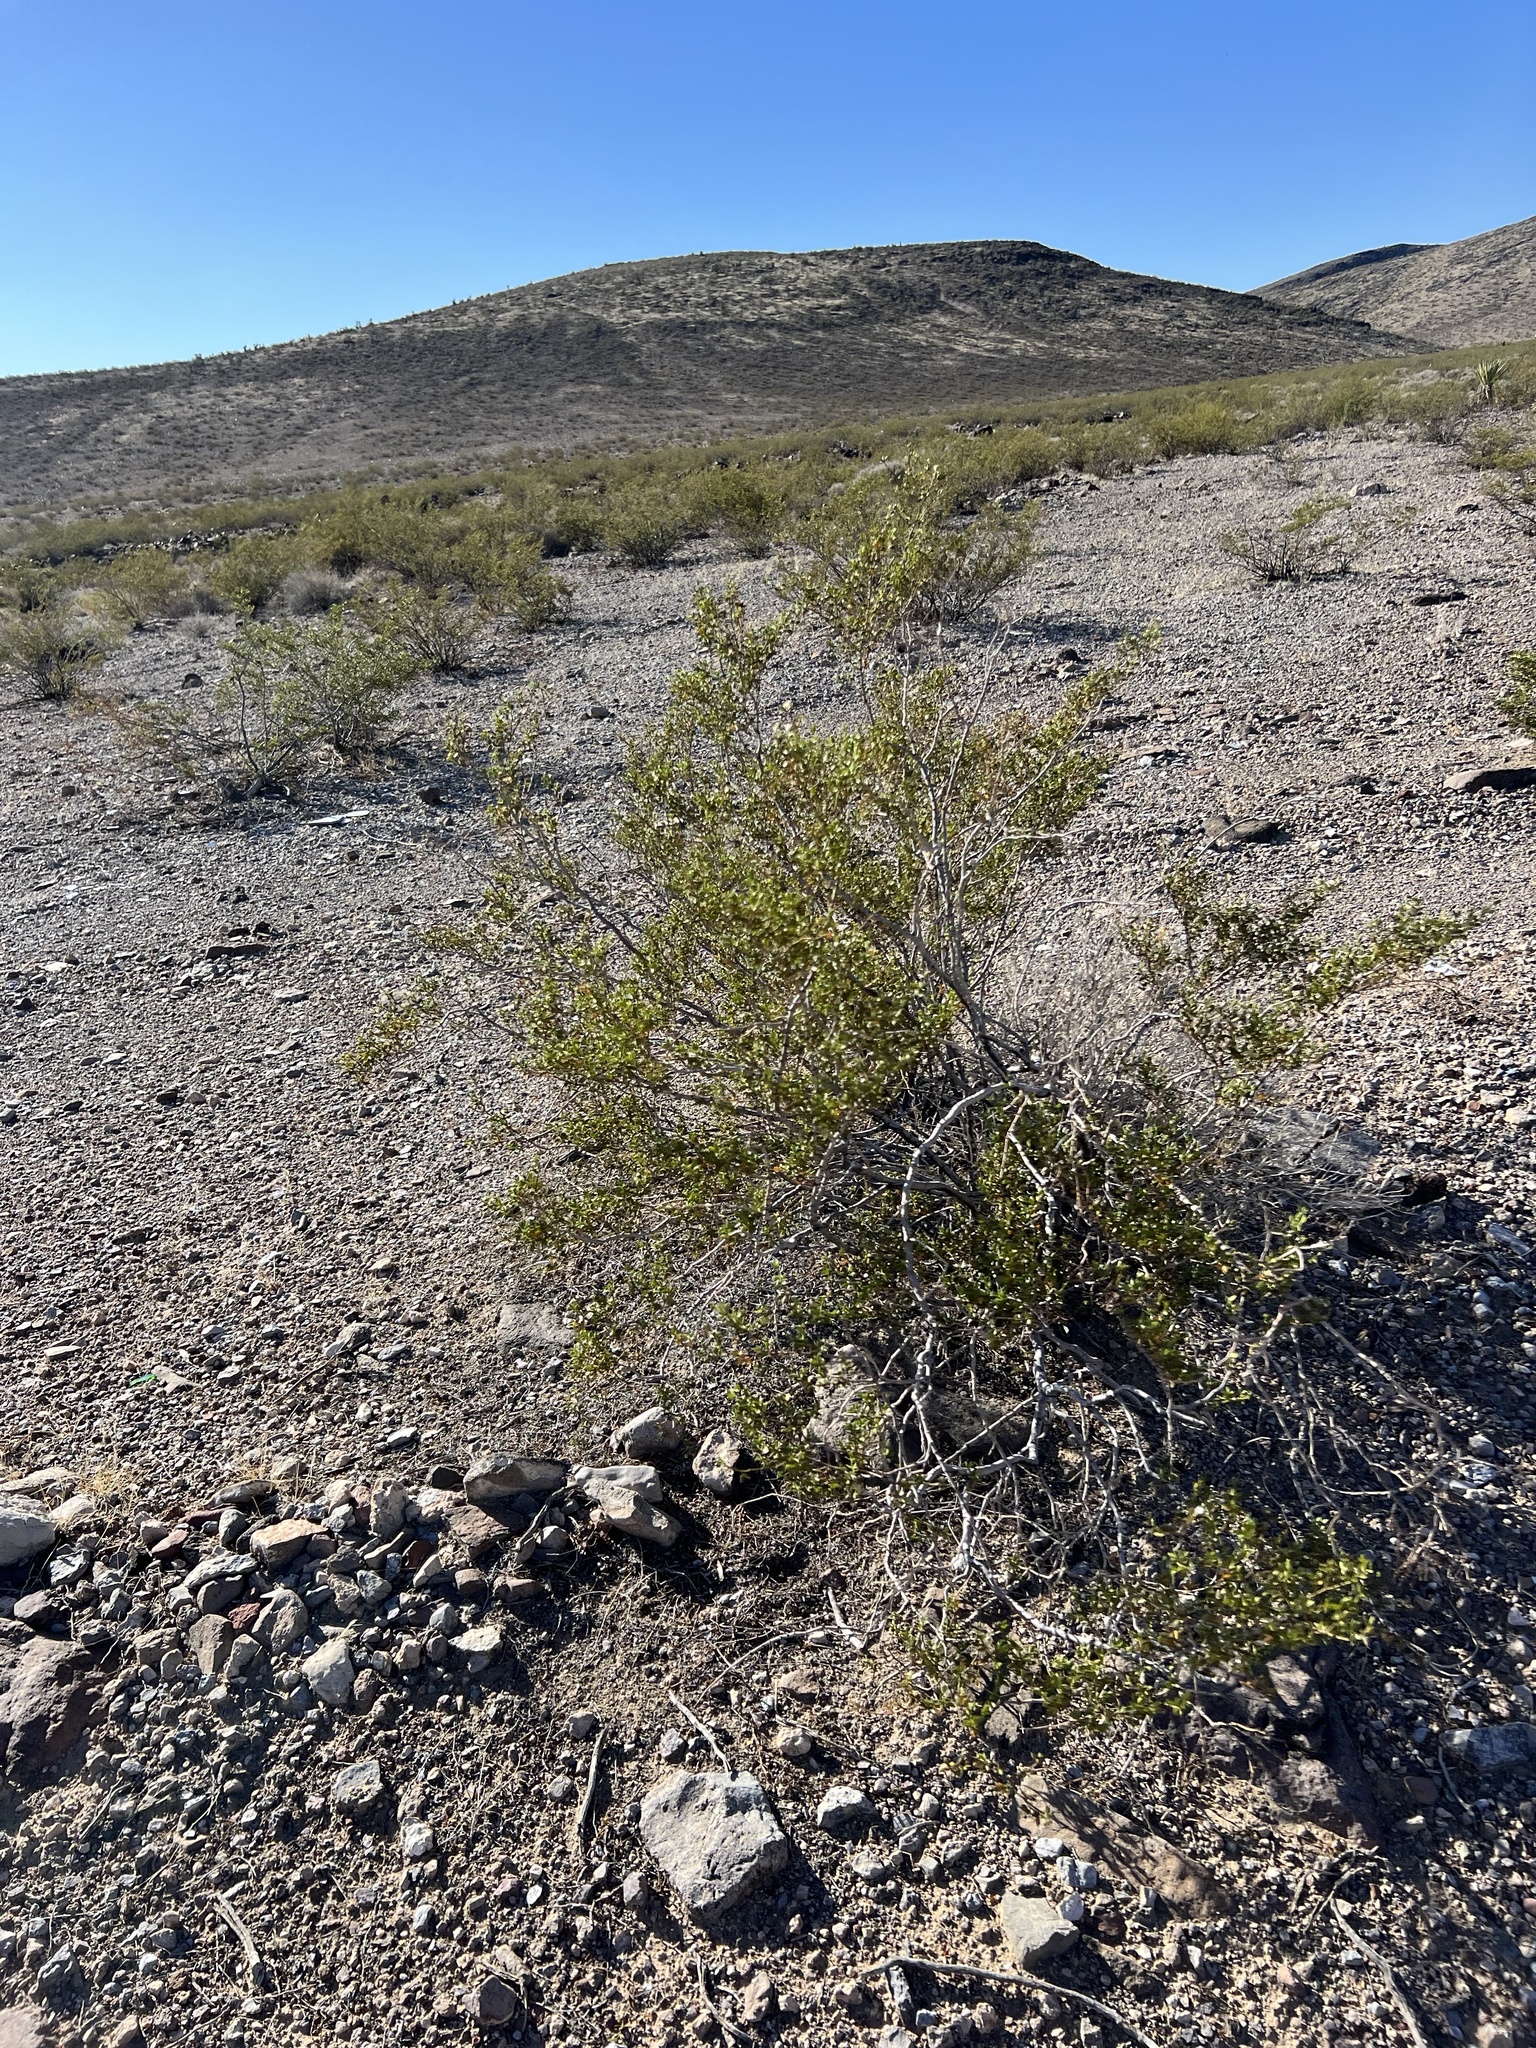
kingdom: Plantae
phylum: Tracheophyta
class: Magnoliopsida
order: Zygophyllales
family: Zygophyllaceae
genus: Larrea
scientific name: Larrea tridentata
